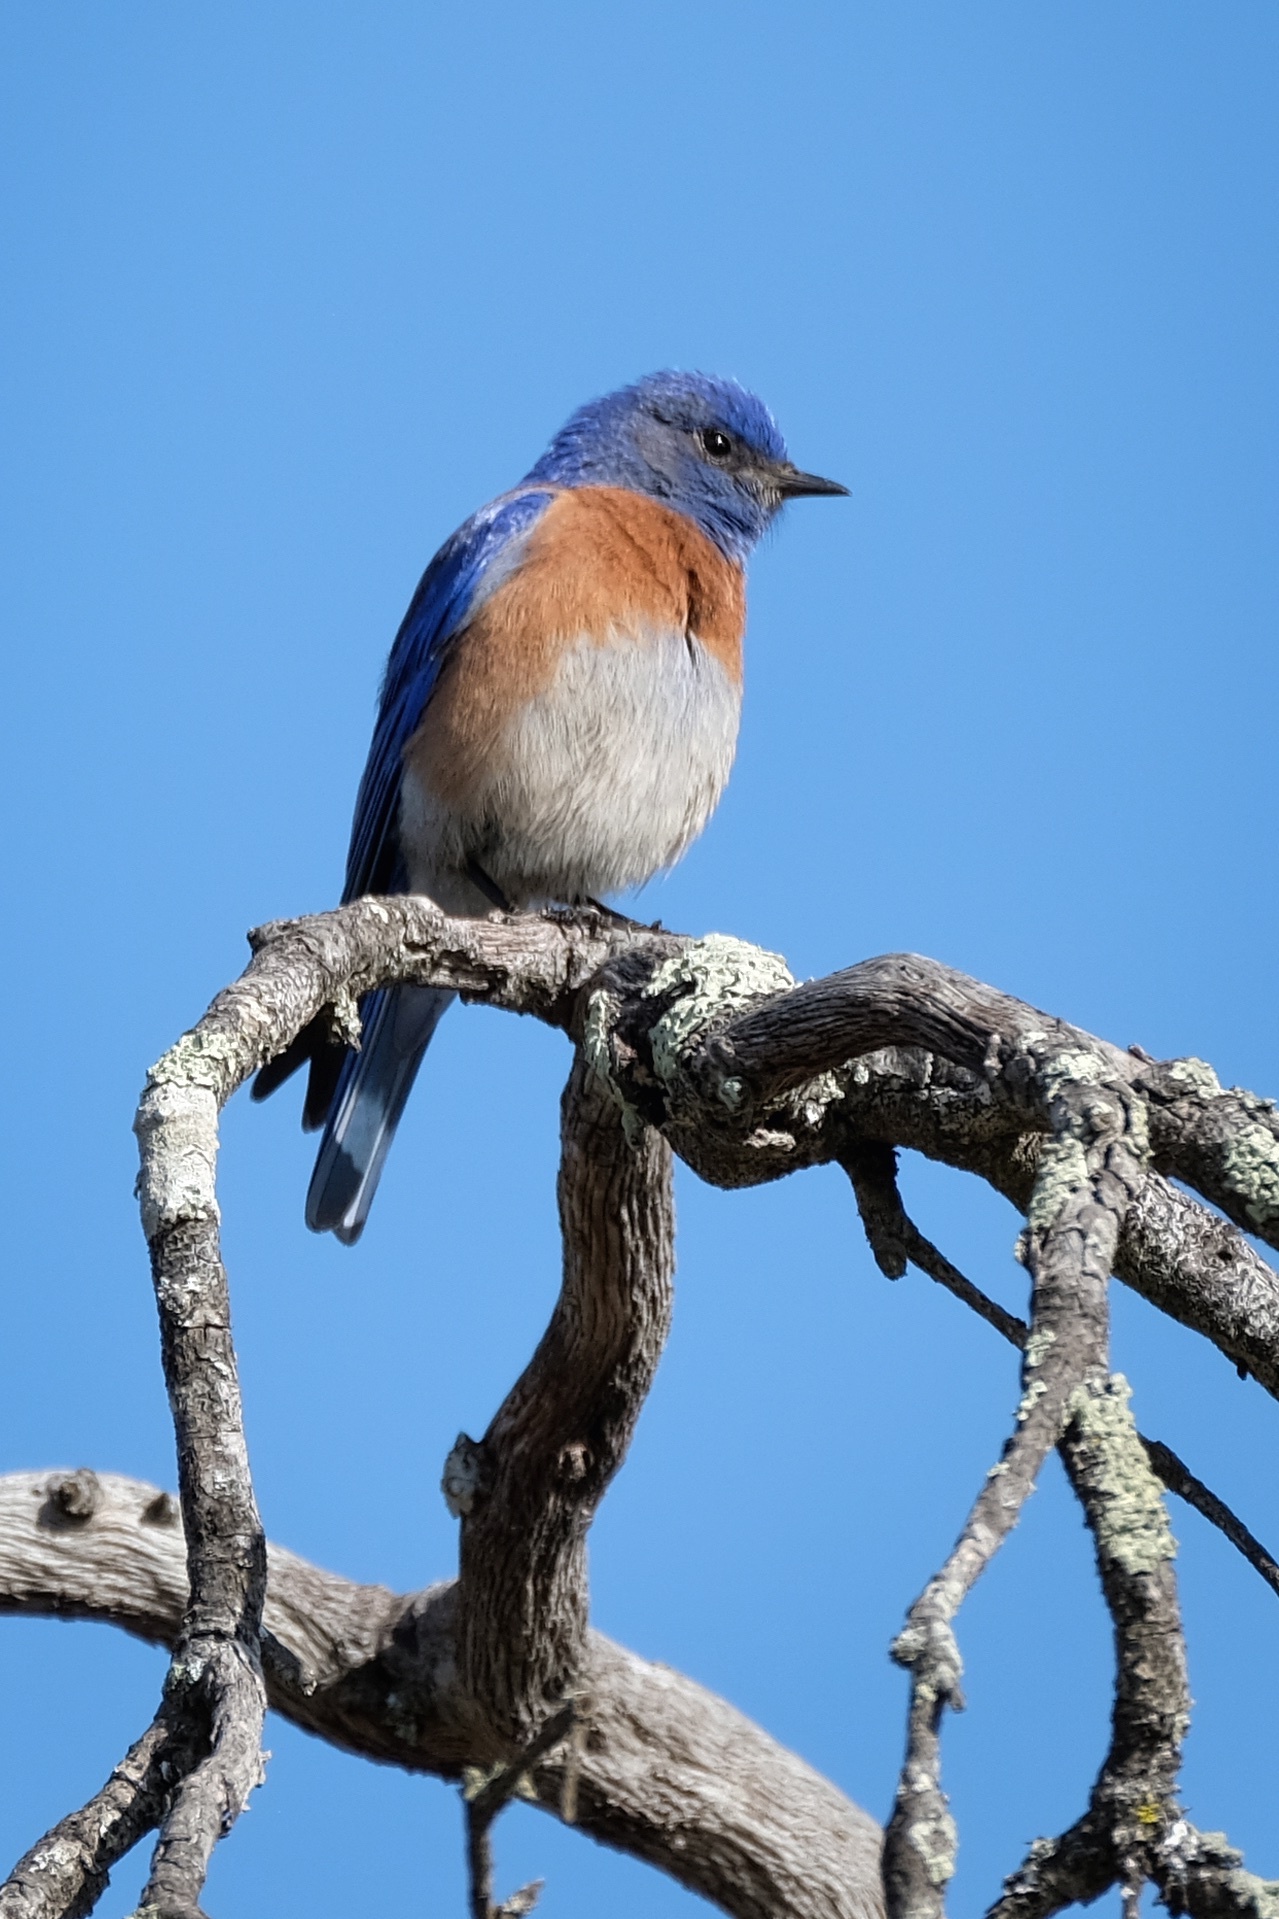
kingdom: Animalia
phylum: Chordata
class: Aves
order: Passeriformes
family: Turdidae
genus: Sialia
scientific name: Sialia mexicana
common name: Western bluebird
